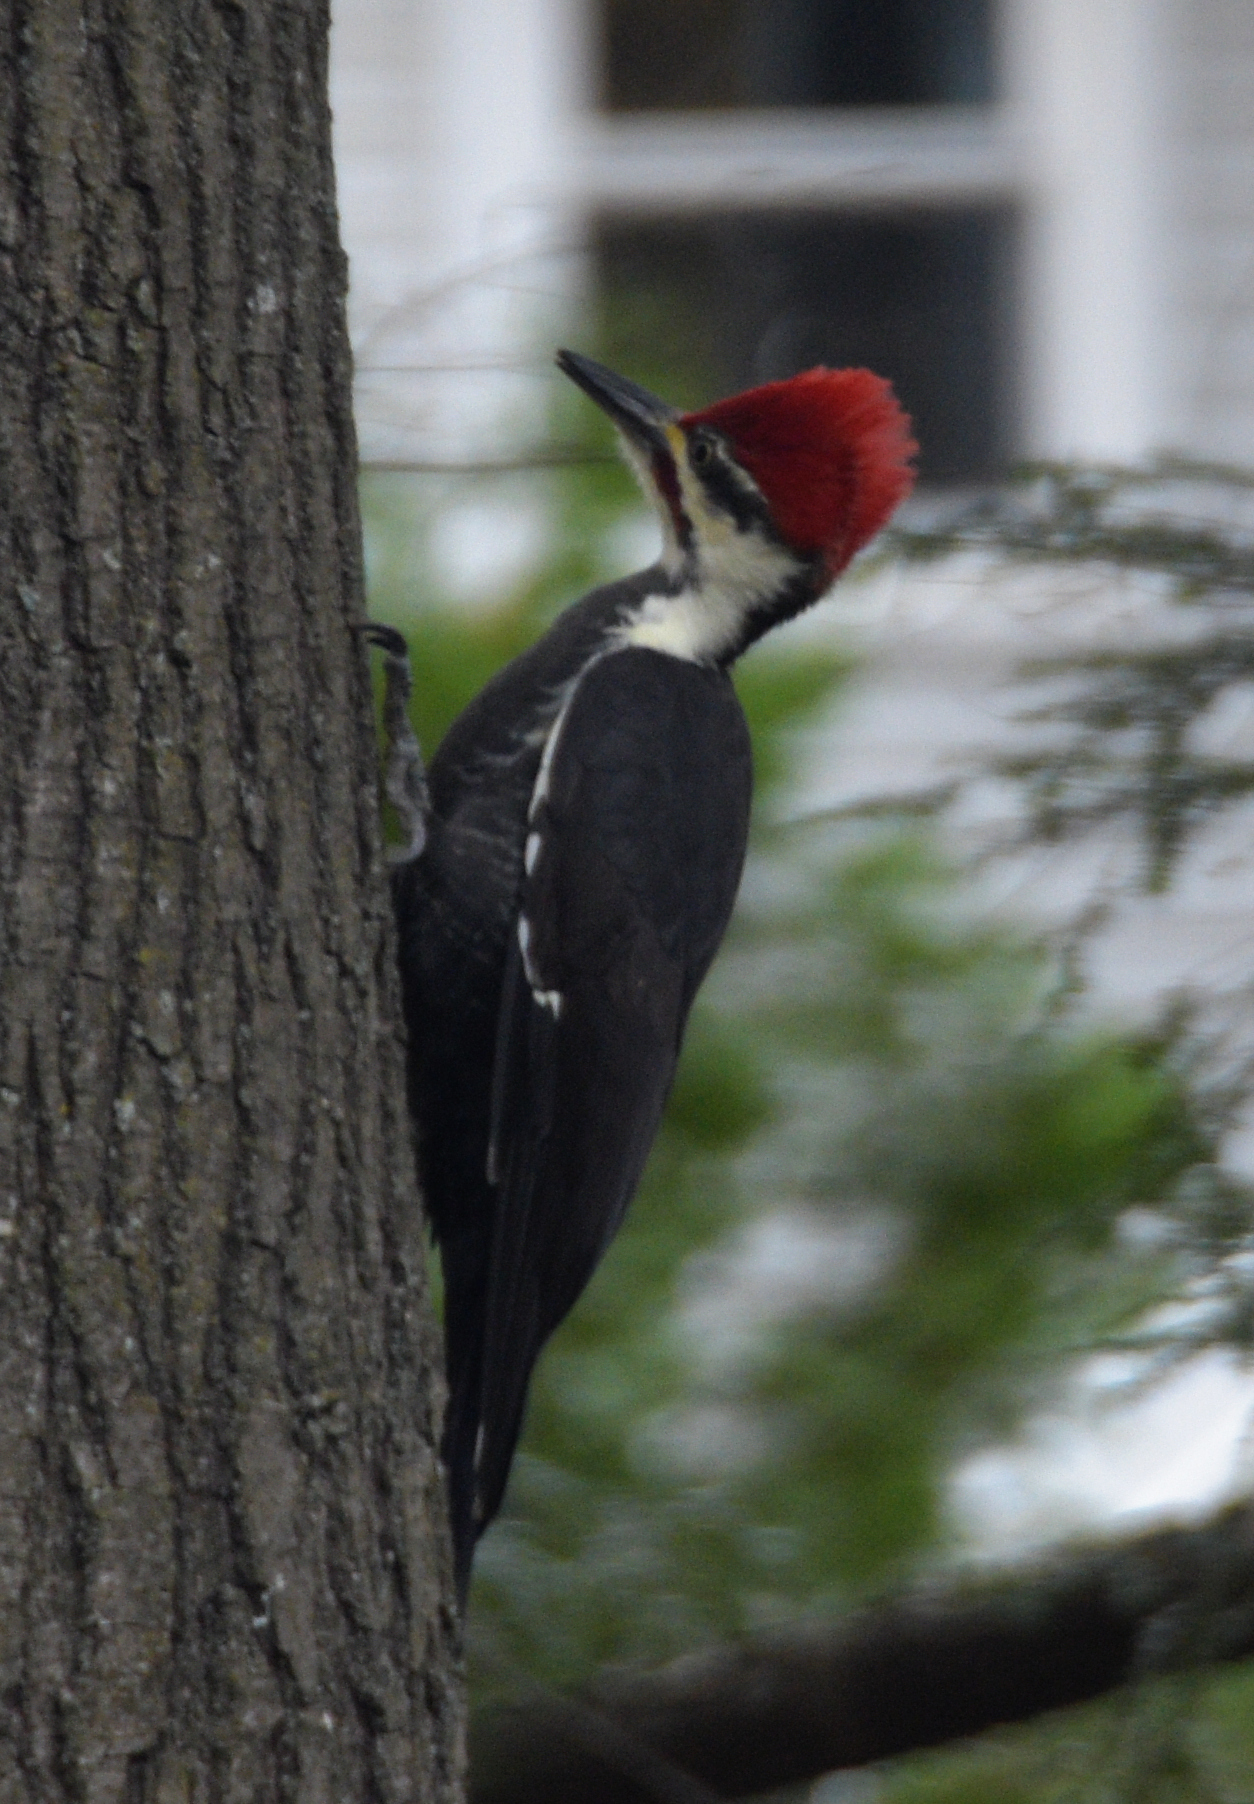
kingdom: Animalia
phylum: Chordata
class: Aves
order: Piciformes
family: Picidae
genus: Dryocopus
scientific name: Dryocopus pileatus
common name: Pileated woodpecker
